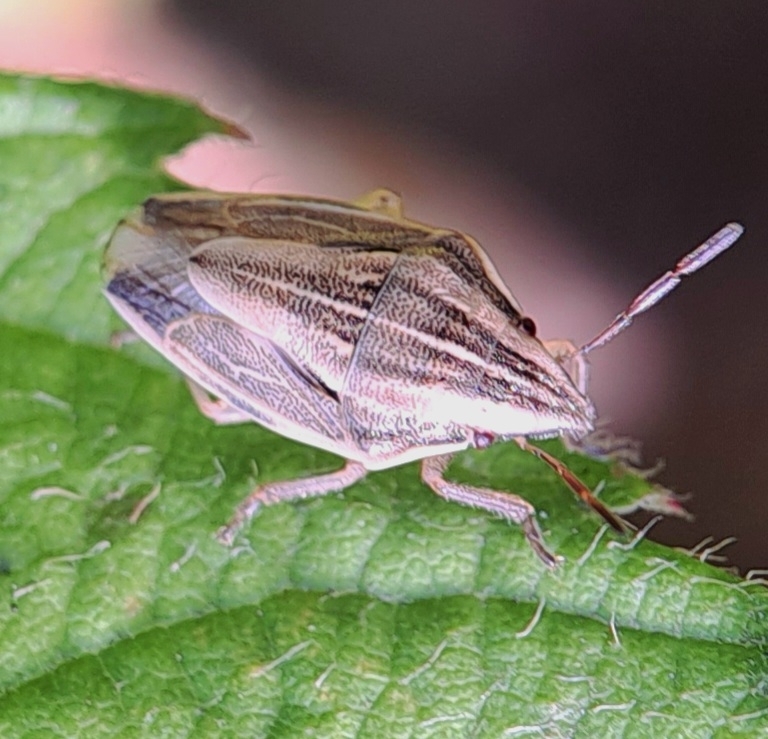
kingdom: Animalia
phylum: Arthropoda
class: Insecta
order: Hemiptera
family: Pentatomidae
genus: Aelia
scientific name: Aelia acuminata
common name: Bishop's mitre
